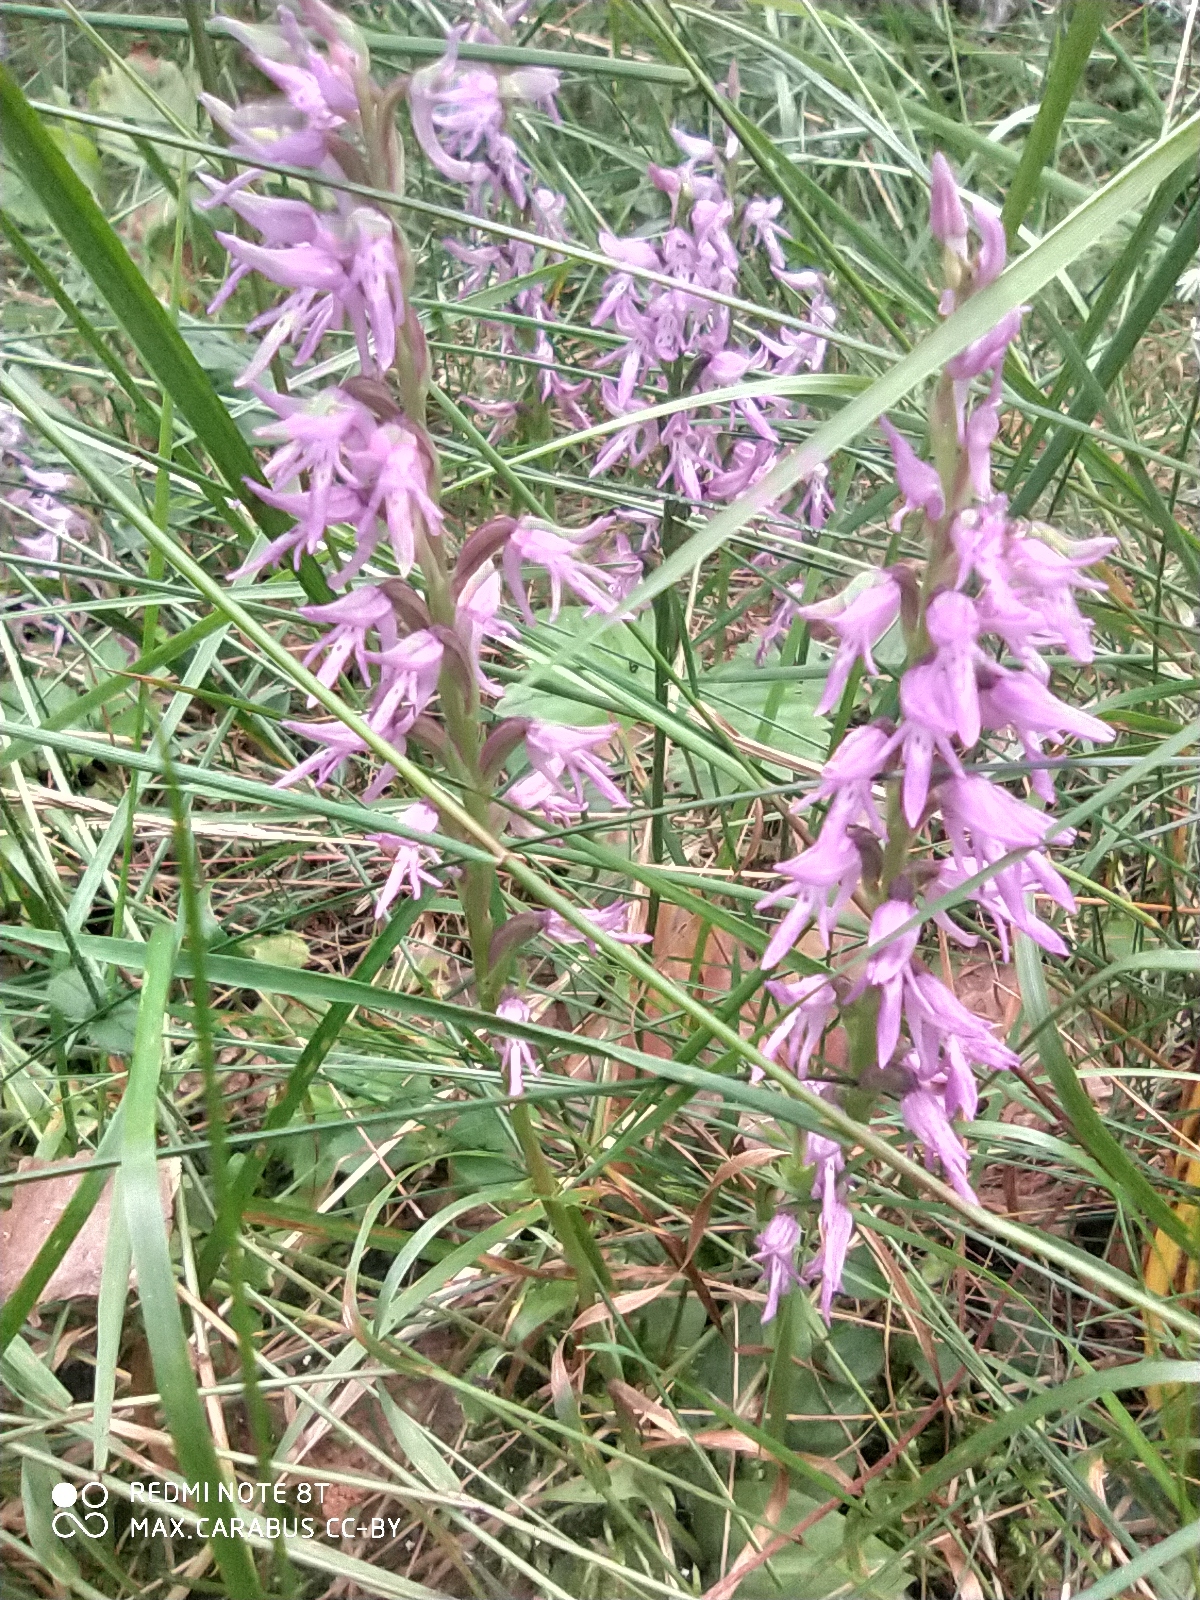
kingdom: Plantae
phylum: Tracheophyta
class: Liliopsida
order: Asparagales
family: Orchidaceae
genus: Hemipilia
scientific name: Hemipilia cucullata
